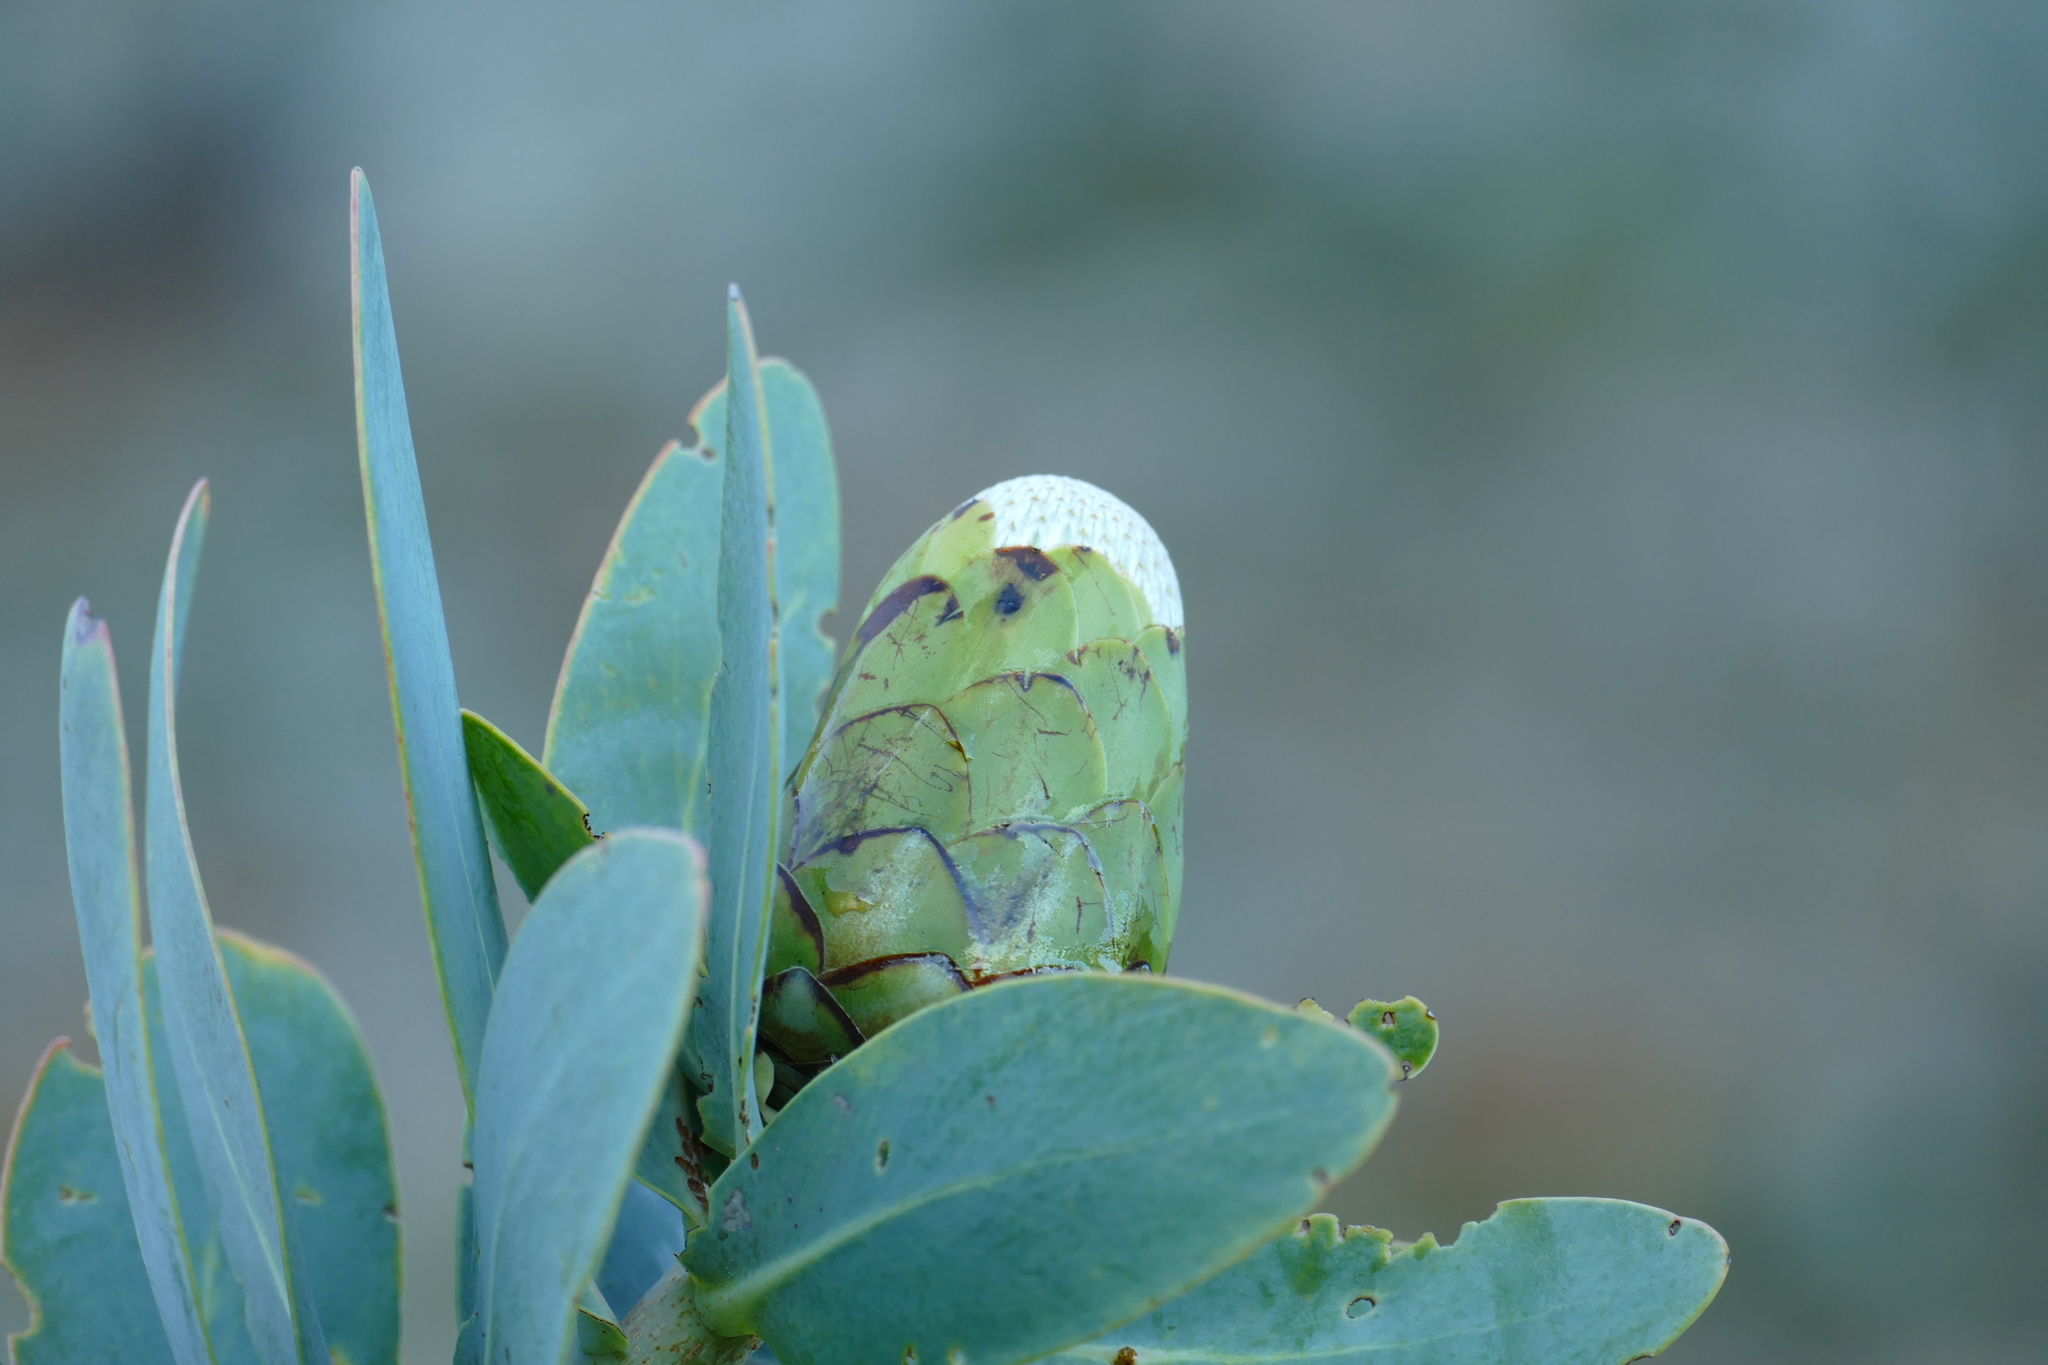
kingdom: Plantae
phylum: Tracheophyta
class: Magnoliopsida
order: Proteales
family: Proteaceae
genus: Protea
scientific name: Protea nitida
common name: Tree protea
